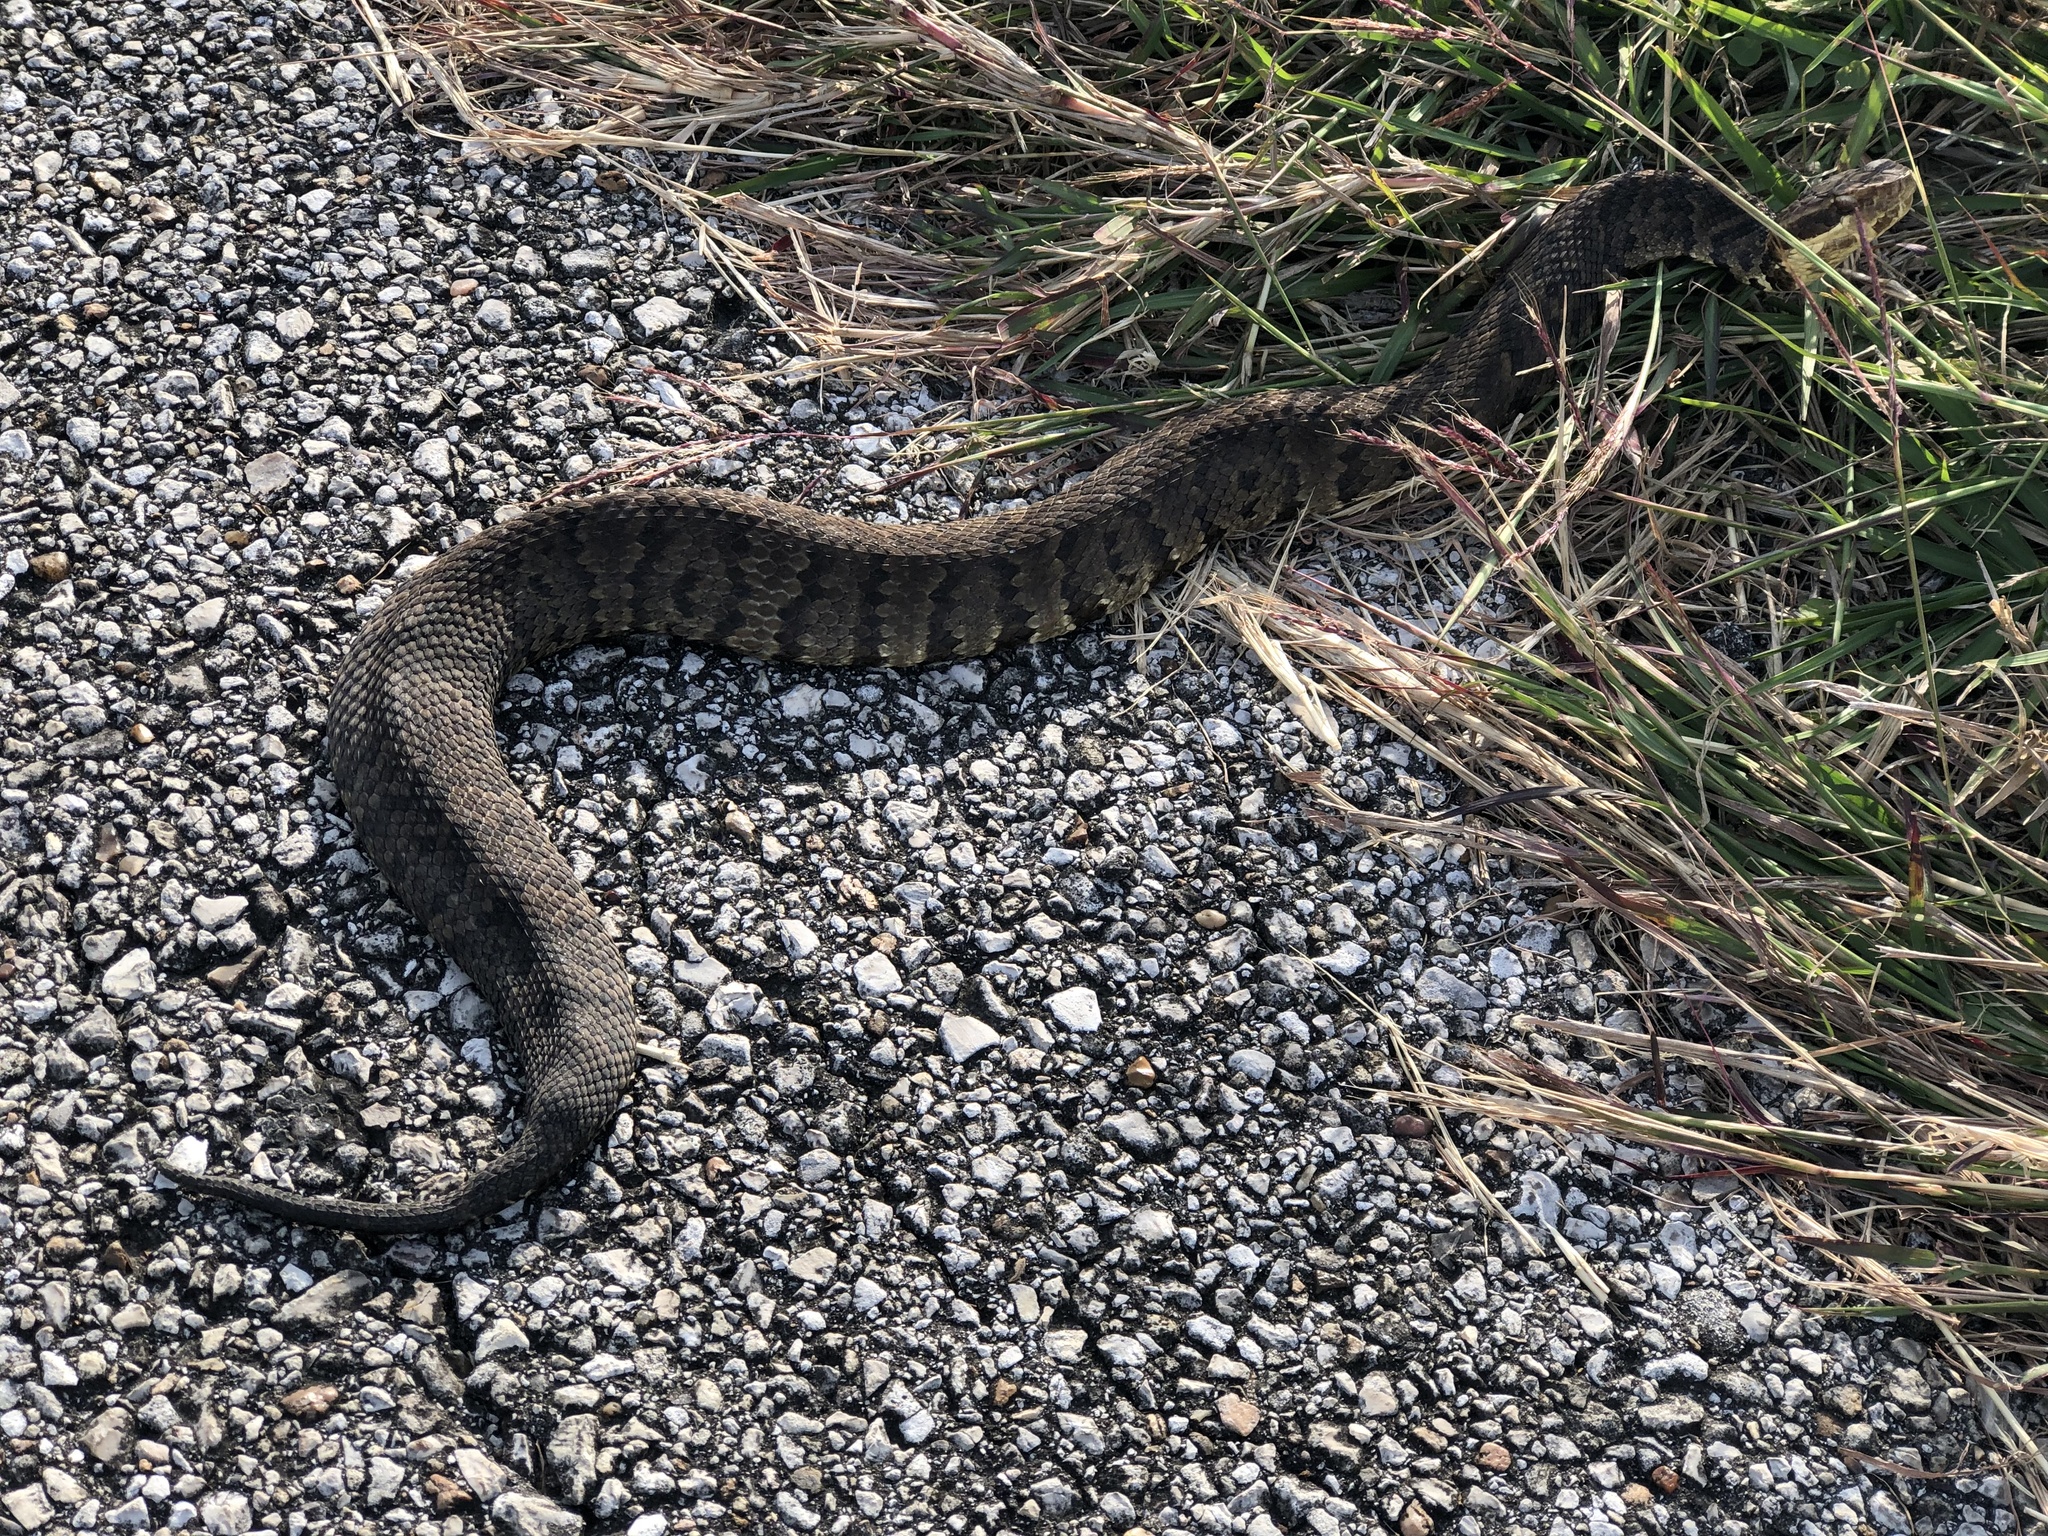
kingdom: Animalia
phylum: Chordata
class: Squamata
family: Viperidae
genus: Agkistrodon
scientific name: Agkistrodon piscivorus
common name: Cottonmouth
